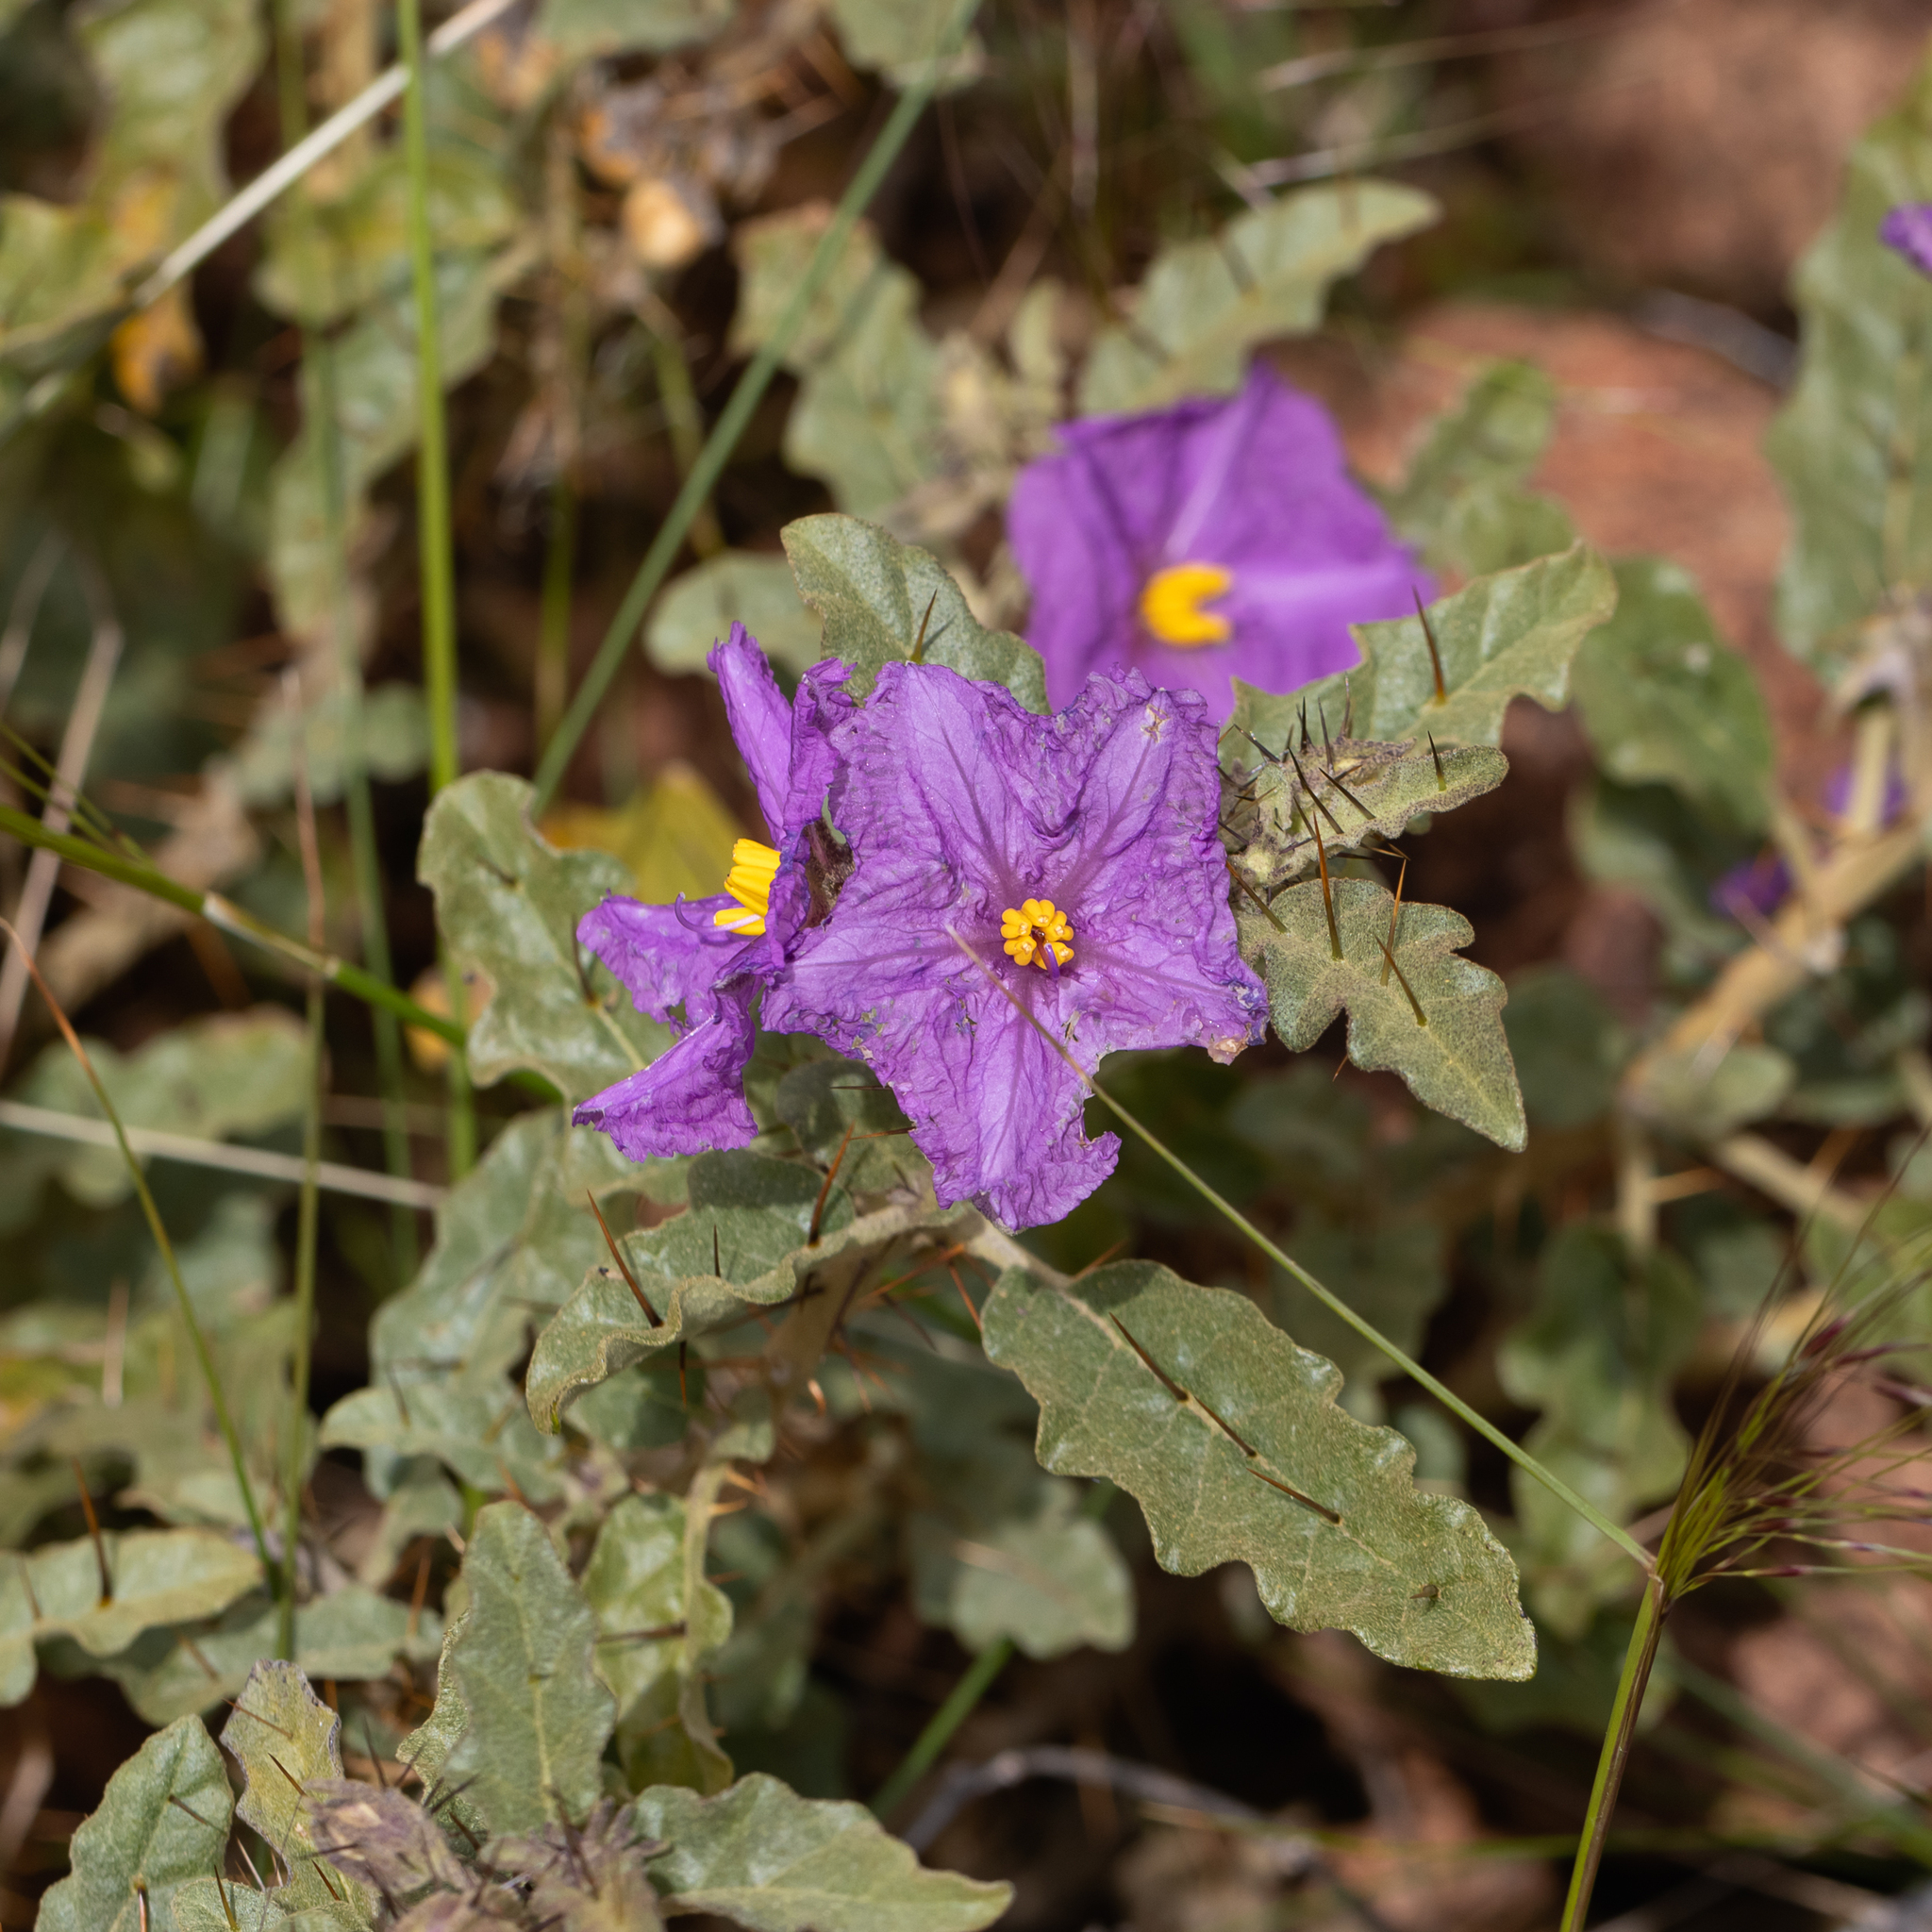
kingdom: Plantae
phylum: Tracheophyta
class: Magnoliopsida
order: Solanales
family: Solanaceae
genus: Solanum
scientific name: Solanum petrophilum
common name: Rock nightshade
